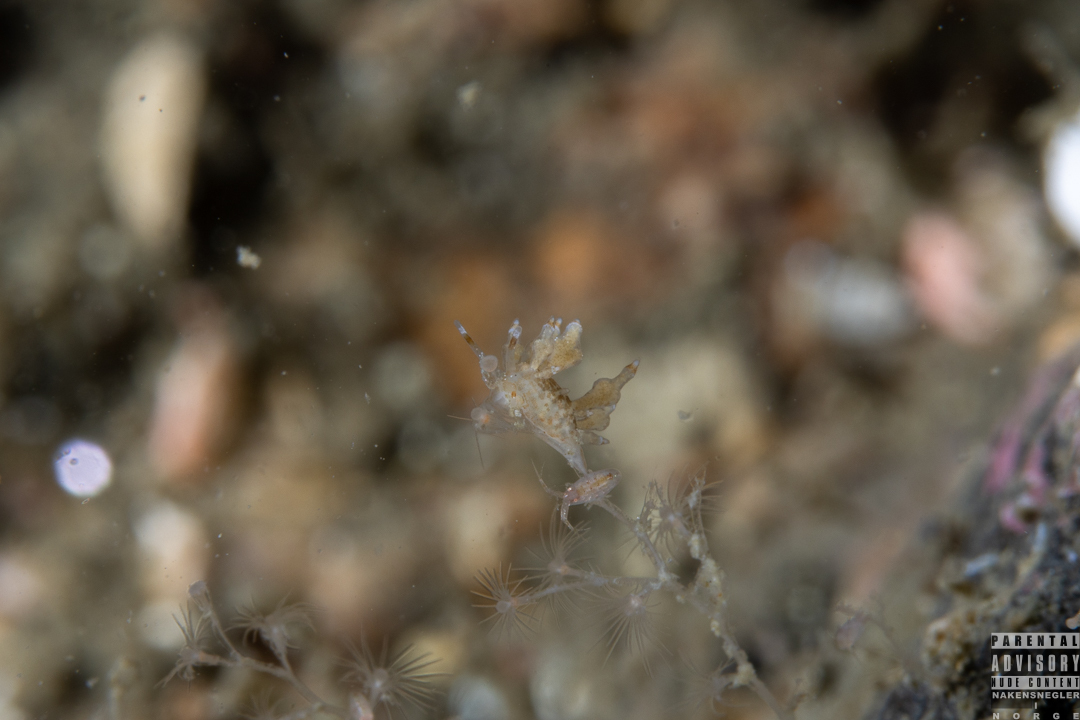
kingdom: Animalia
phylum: Mollusca
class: Gastropoda
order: Nudibranchia
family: Eubranchidae
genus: Eubranchus
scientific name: Eubranchus scintillans
